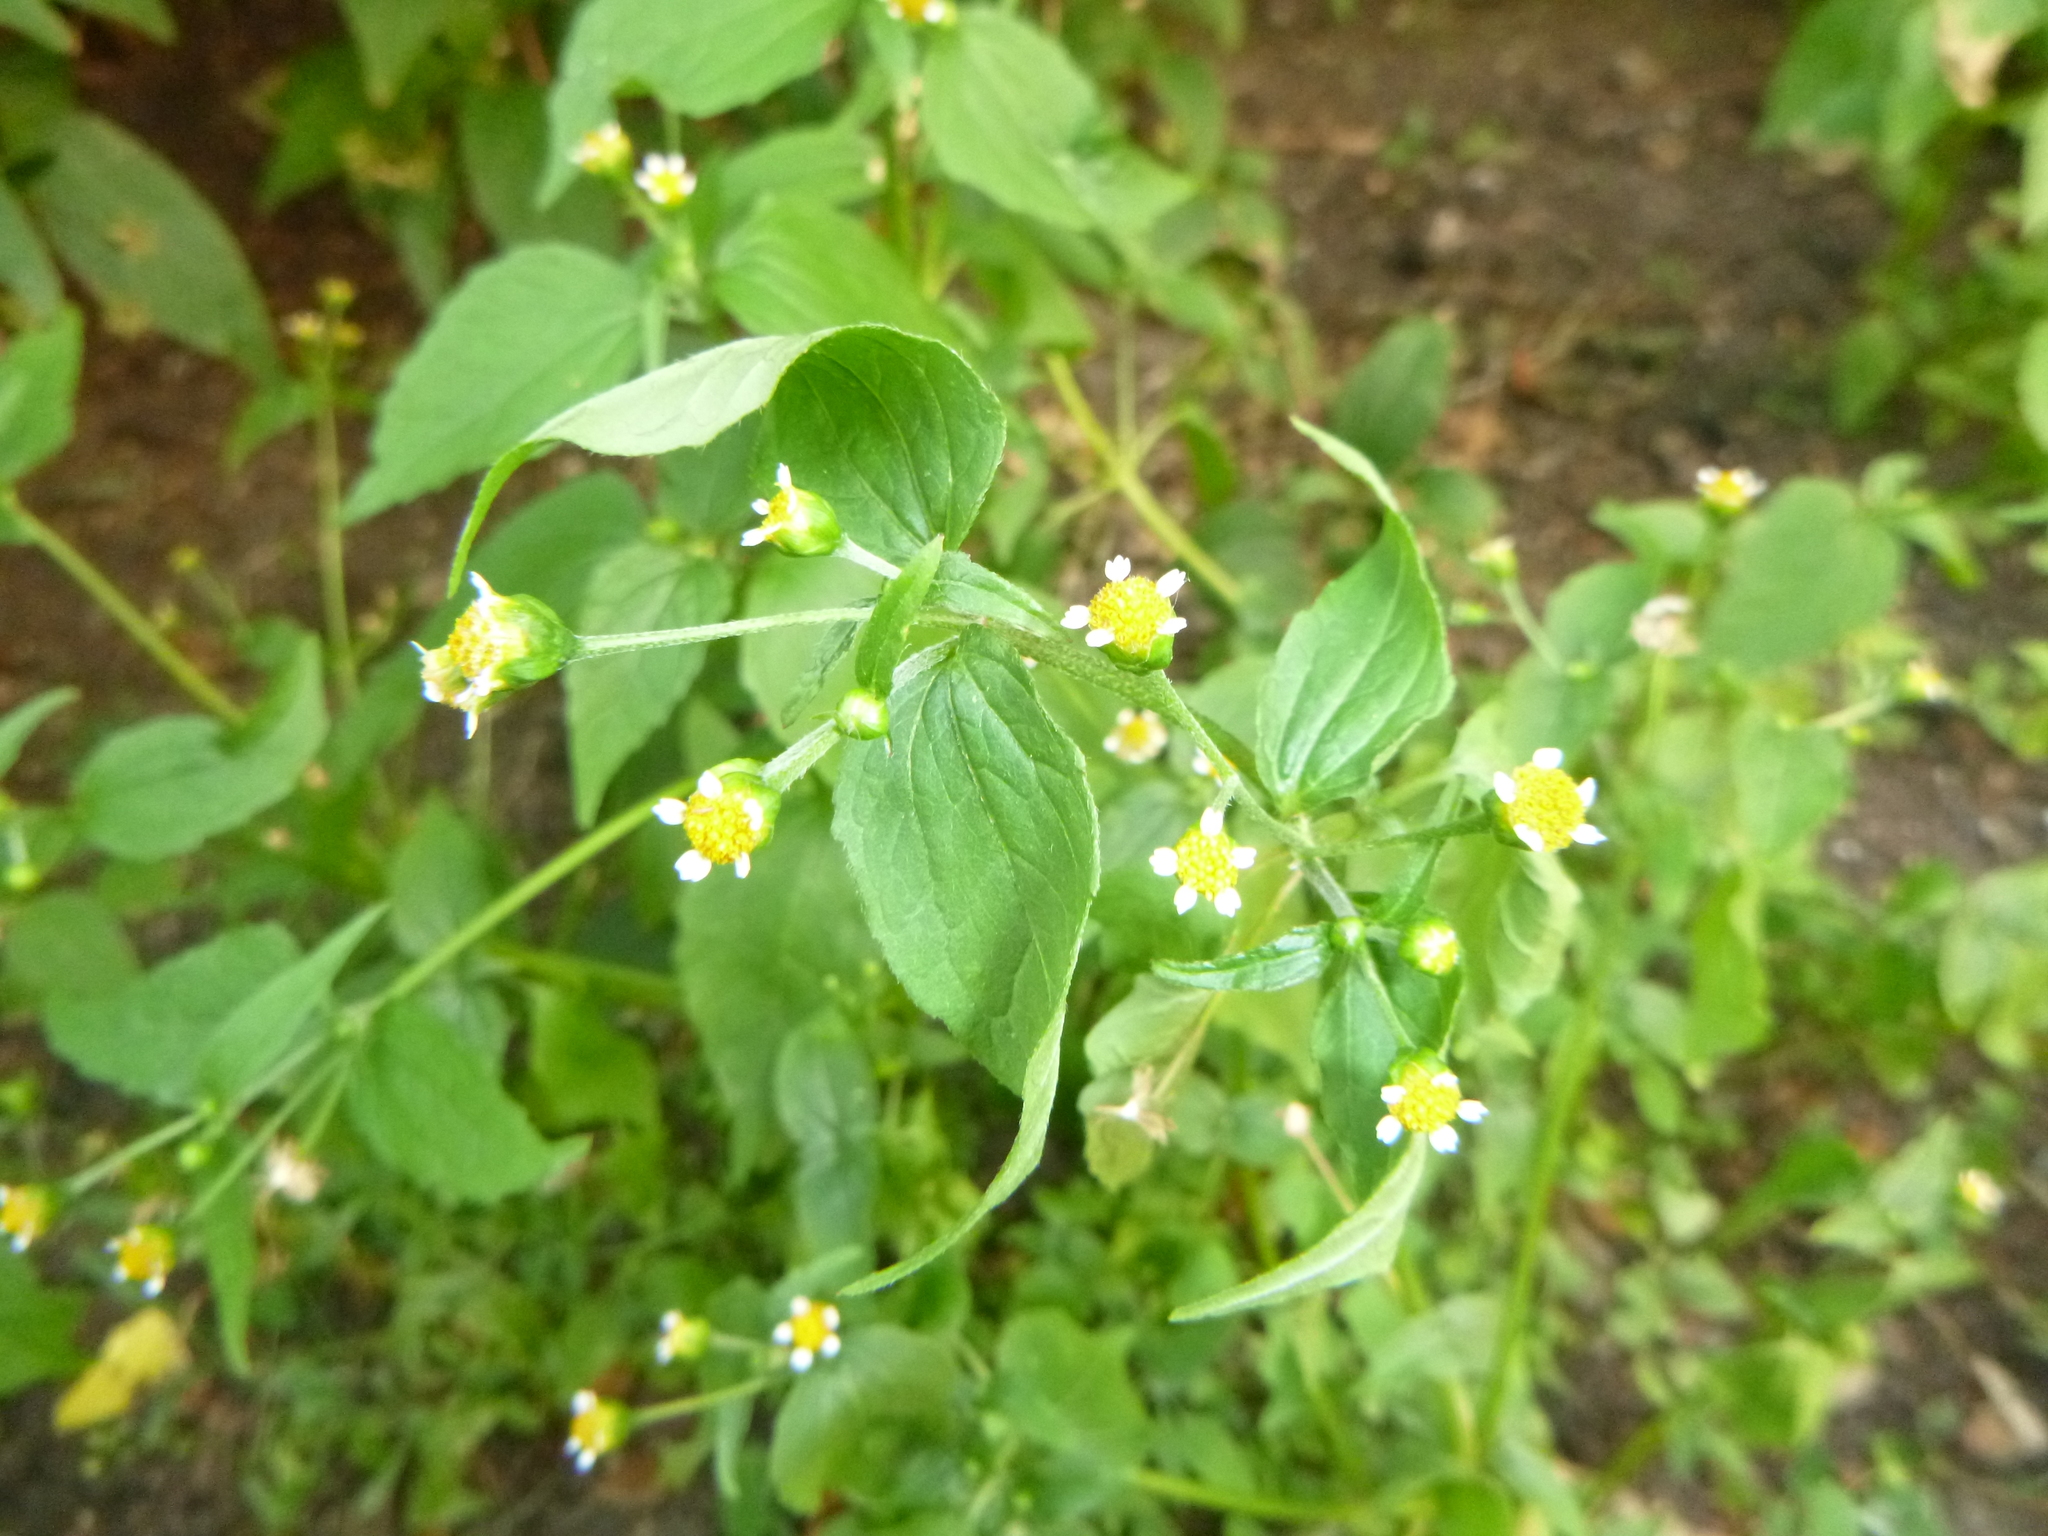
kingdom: Plantae
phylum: Tracheophyta
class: Magnoliopsida
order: Asterales
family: Asteraceae
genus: Galinsoga
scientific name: Galinsoga parviflora
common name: Gallant soldier
